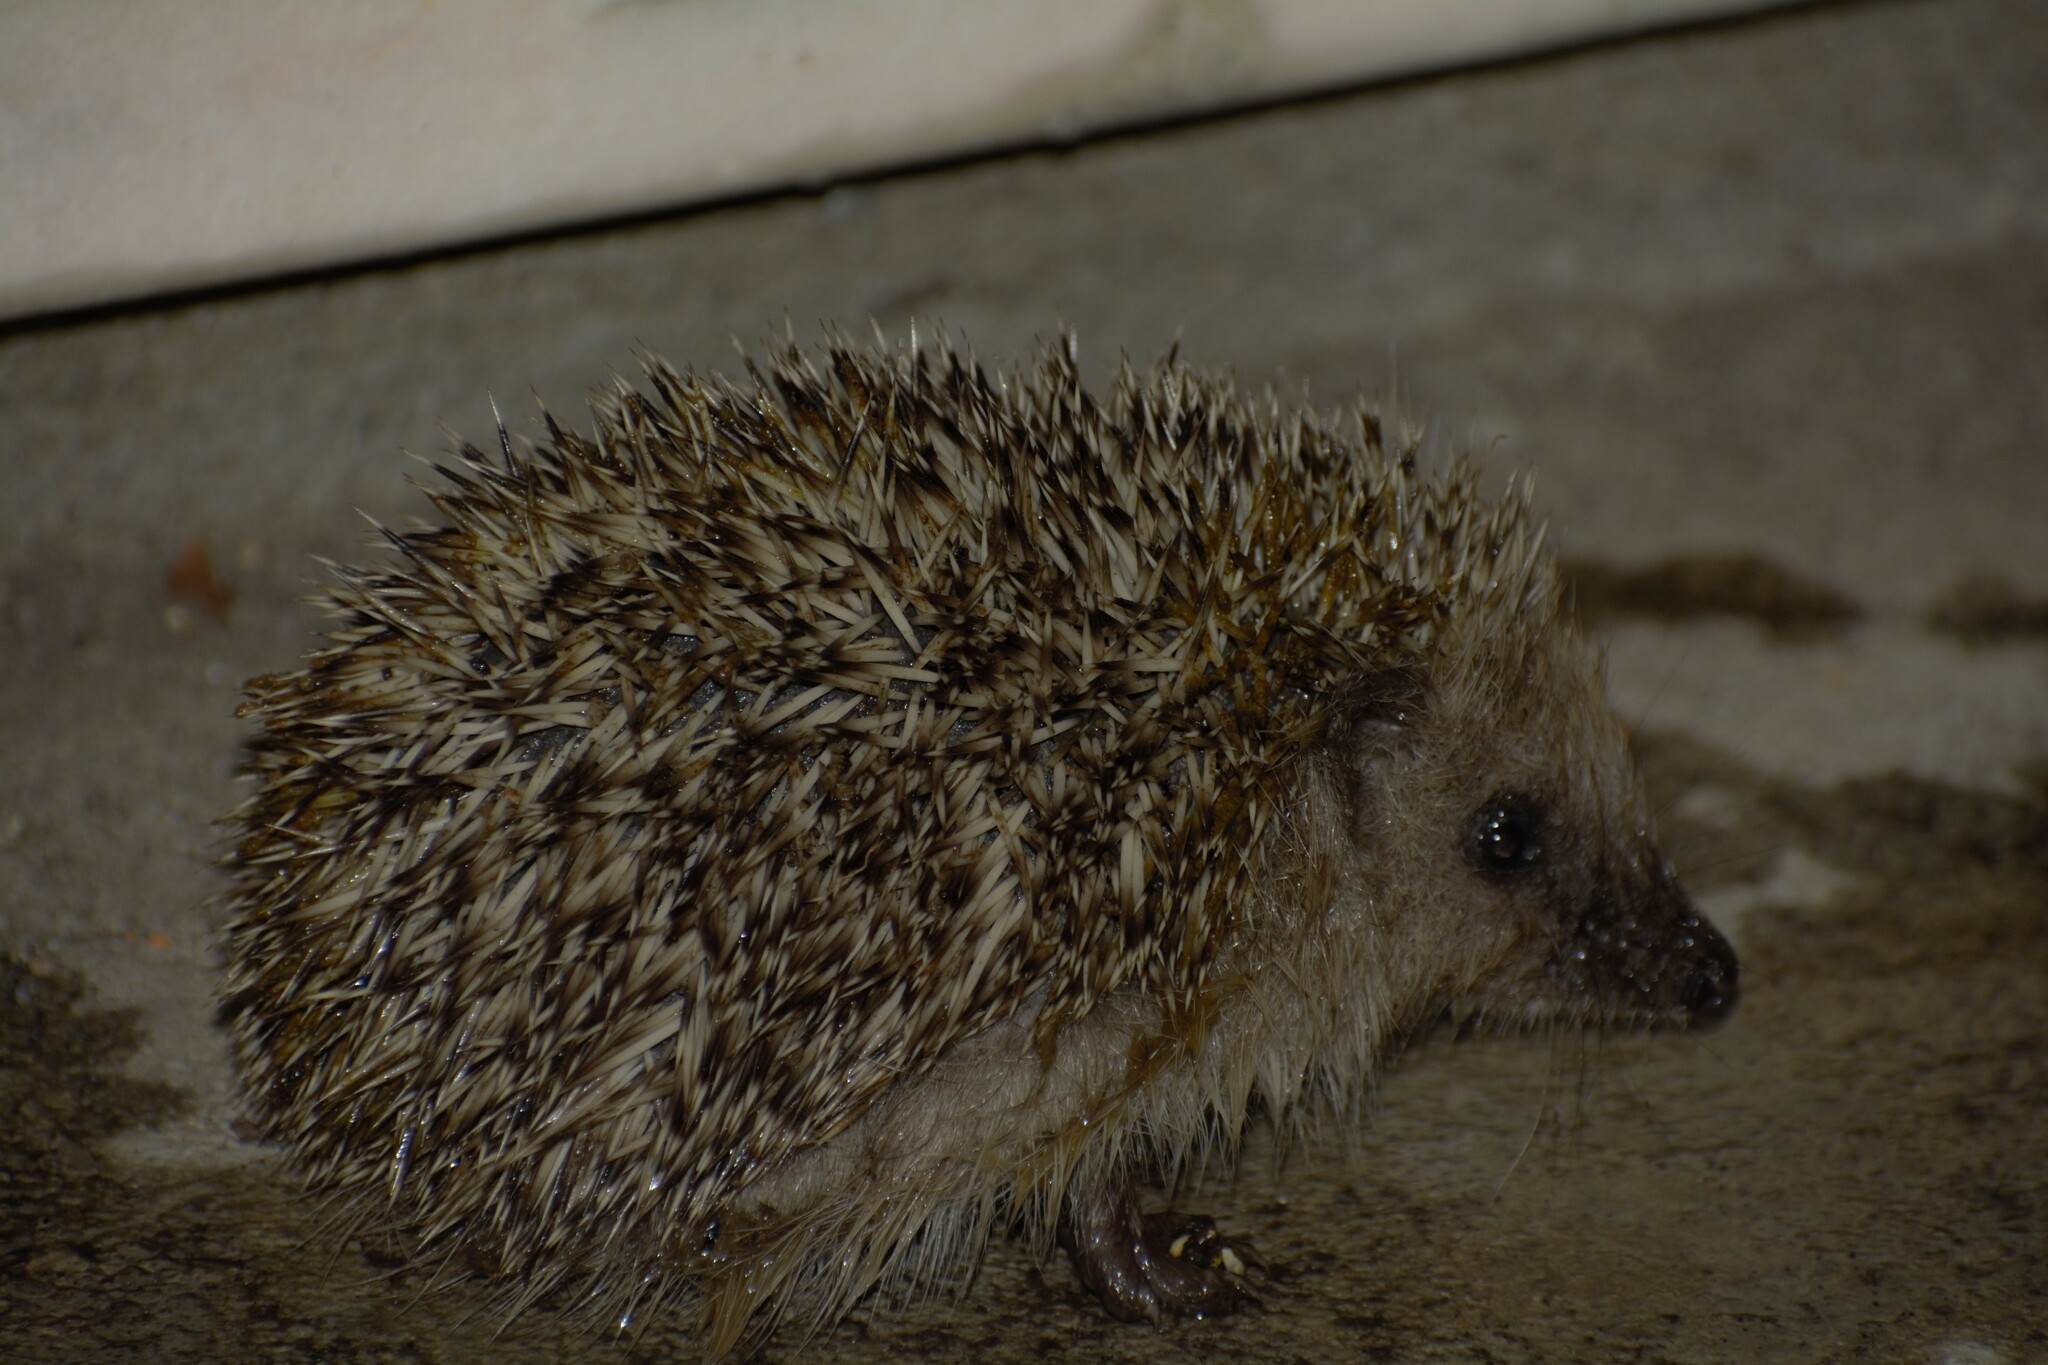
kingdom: Animalia
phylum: Chordata
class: Mammalia
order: Erinaceomorpha
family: Erinaceidae
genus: Erinaceus
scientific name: Erinaceus europaeus
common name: West european hedgehog
